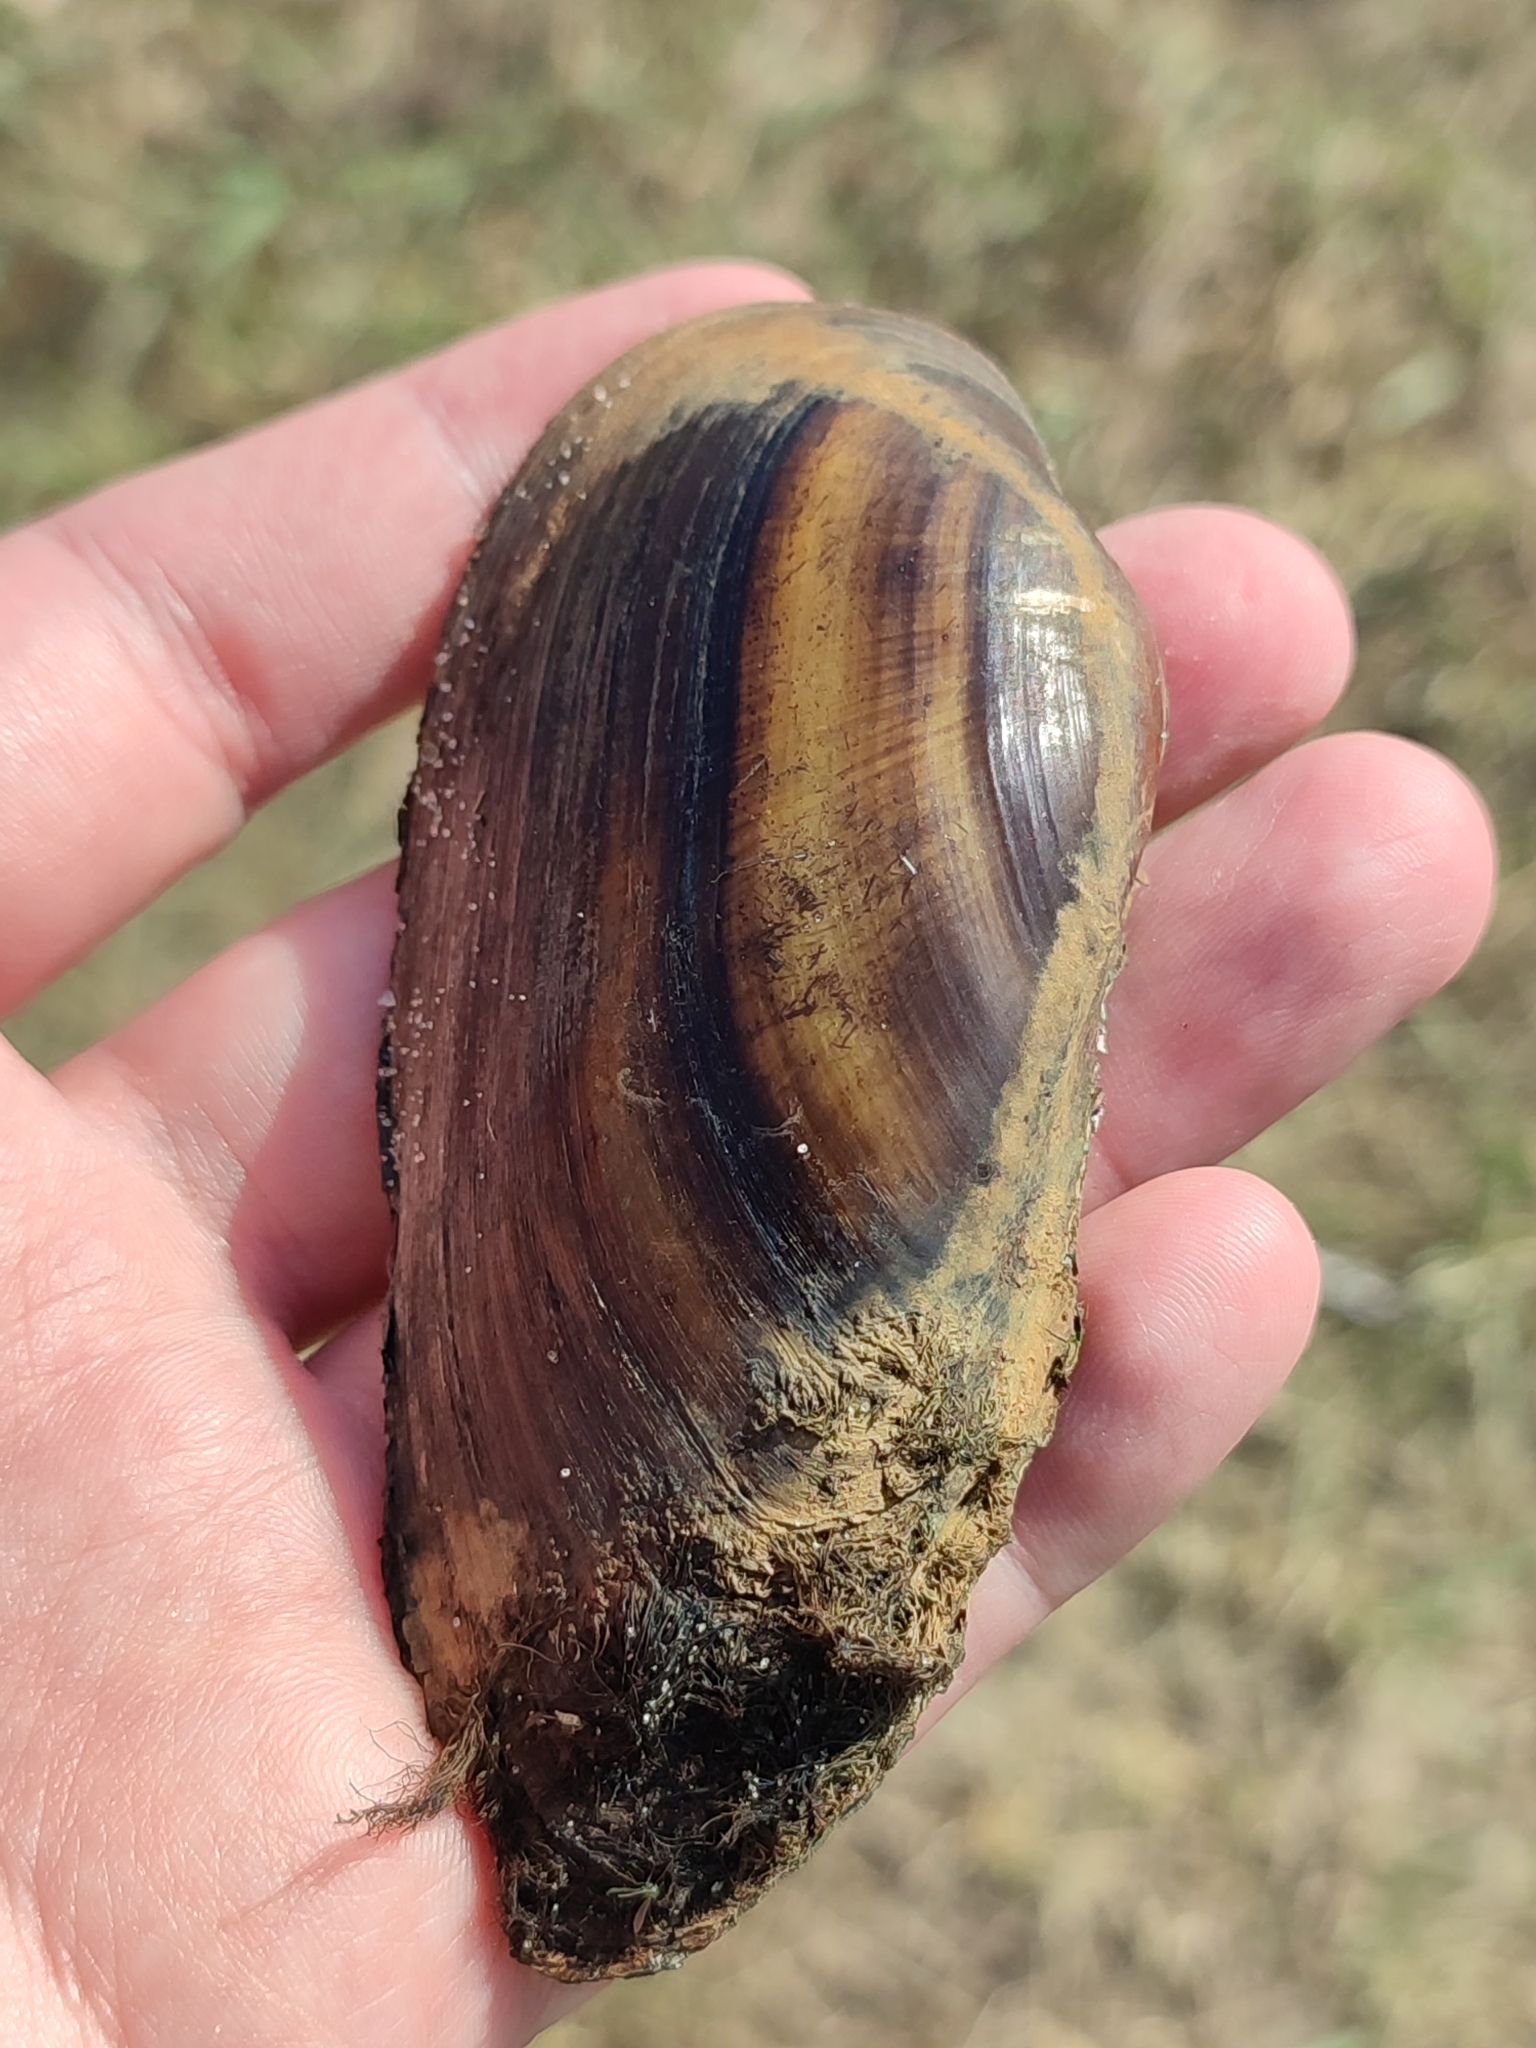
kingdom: Animalia
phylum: Mollusca
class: Bivalvia
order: Unionida
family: Unionidae
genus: Unio
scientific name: Unio pictorum
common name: Painter's mussel
